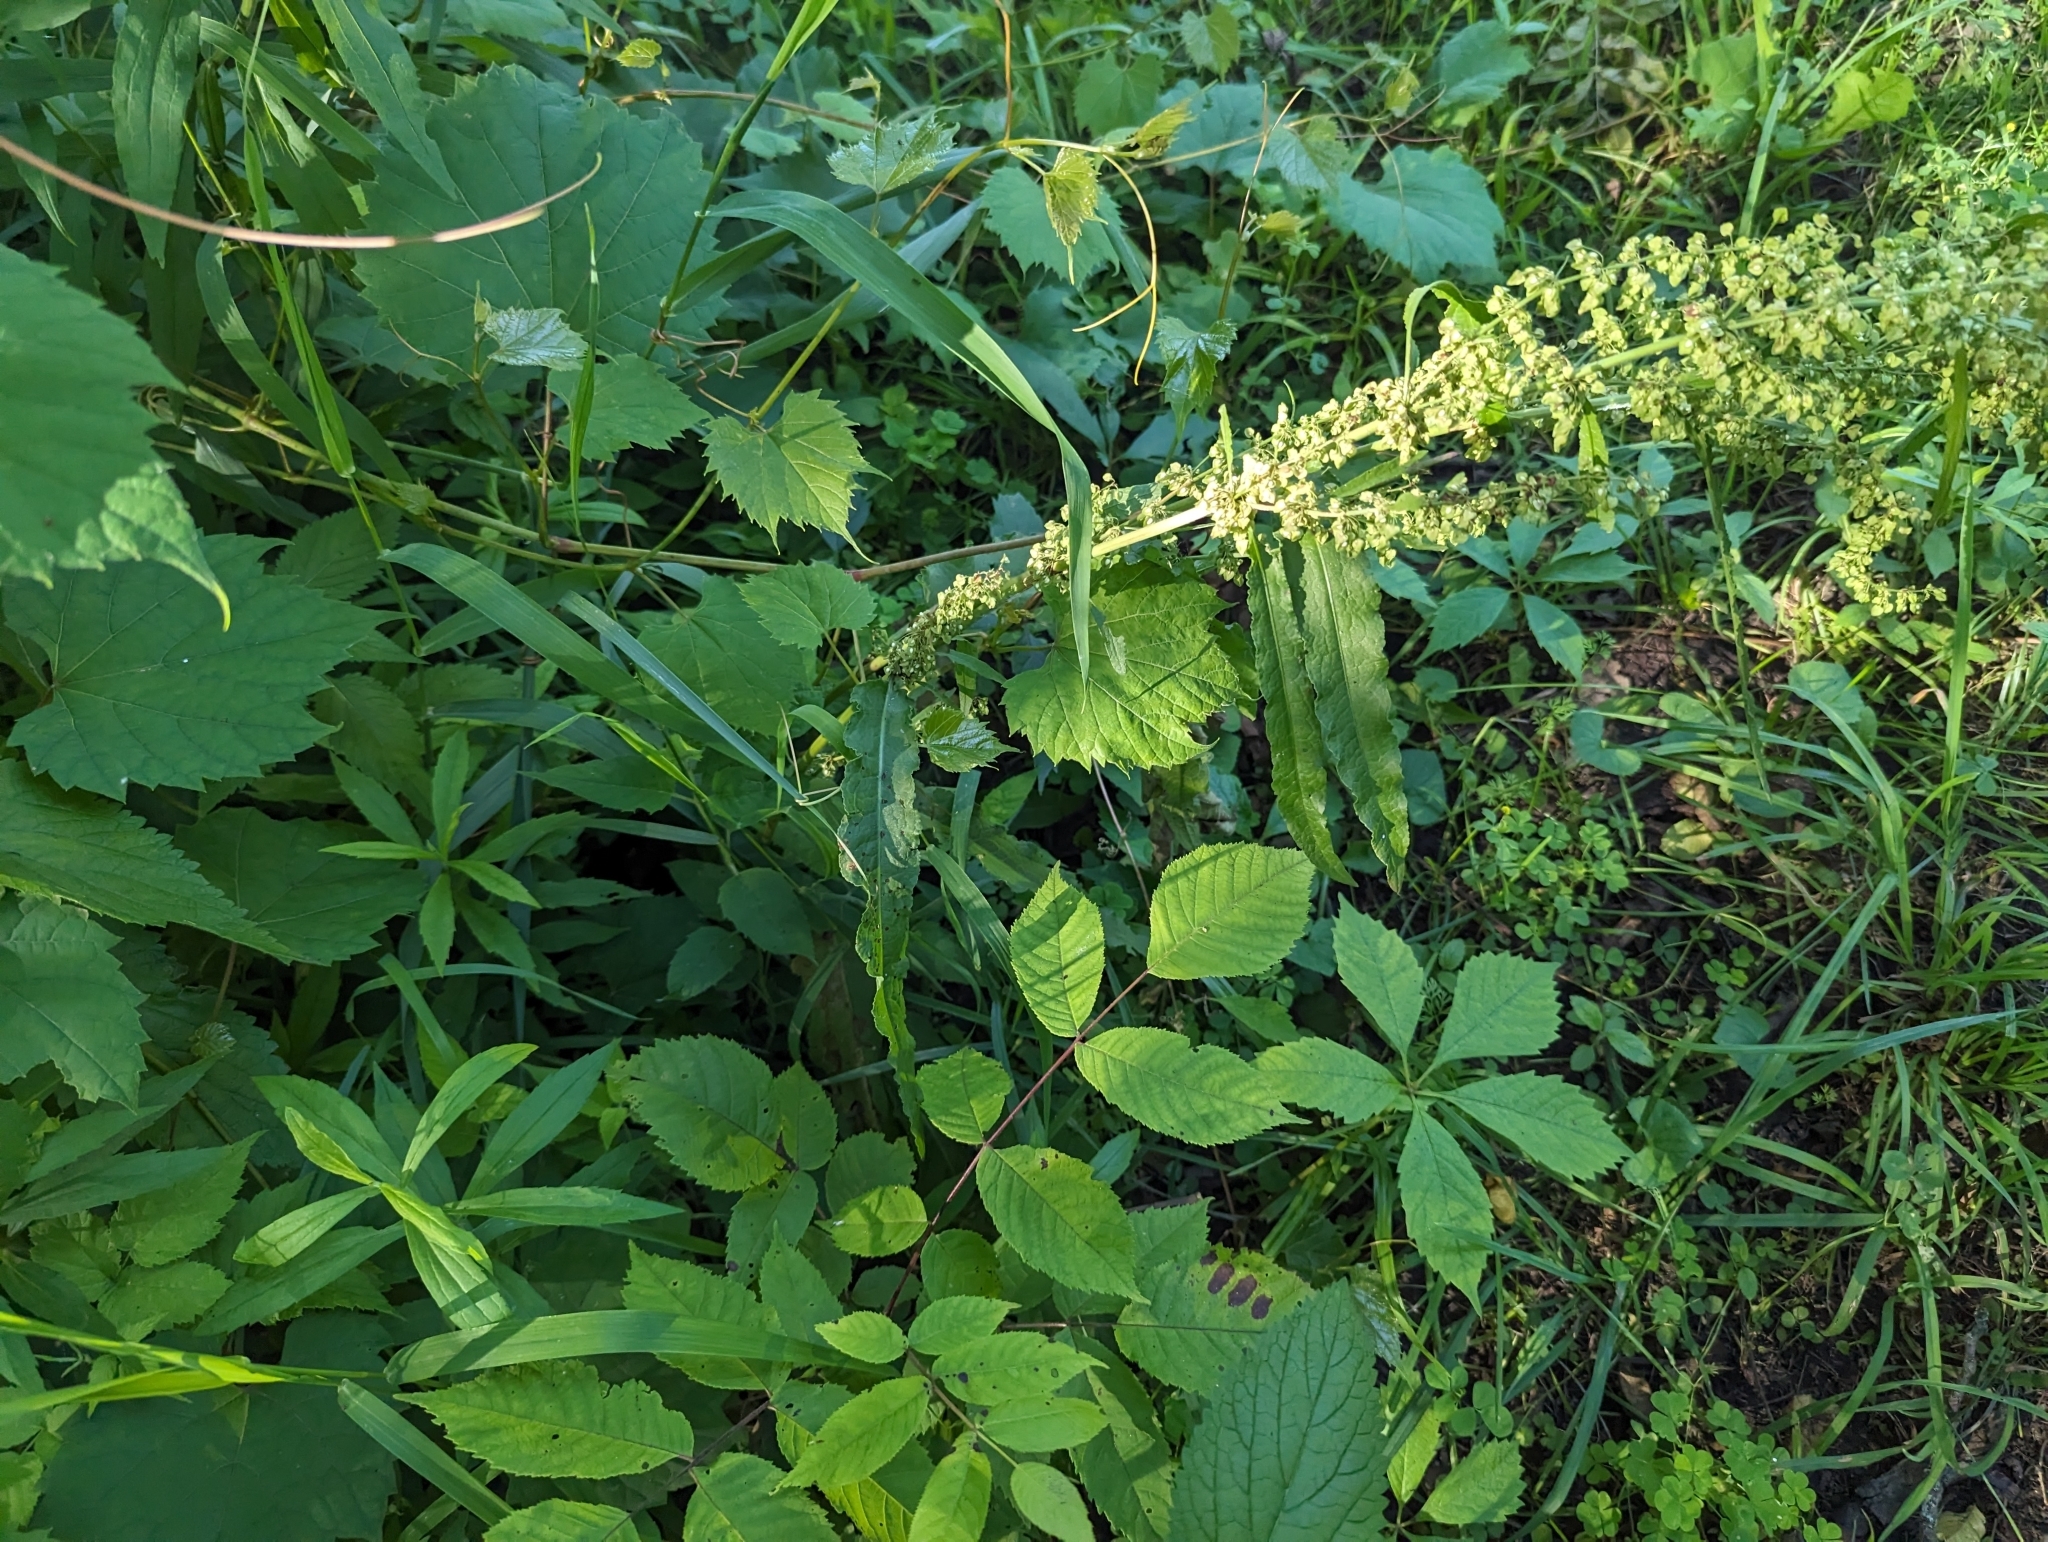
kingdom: Plantae
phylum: Tracheophyta
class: Magnoliopsida
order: Caryophyllales
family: Polygonaceae
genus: Rumex
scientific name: Rumex crispus
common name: Curled dock
